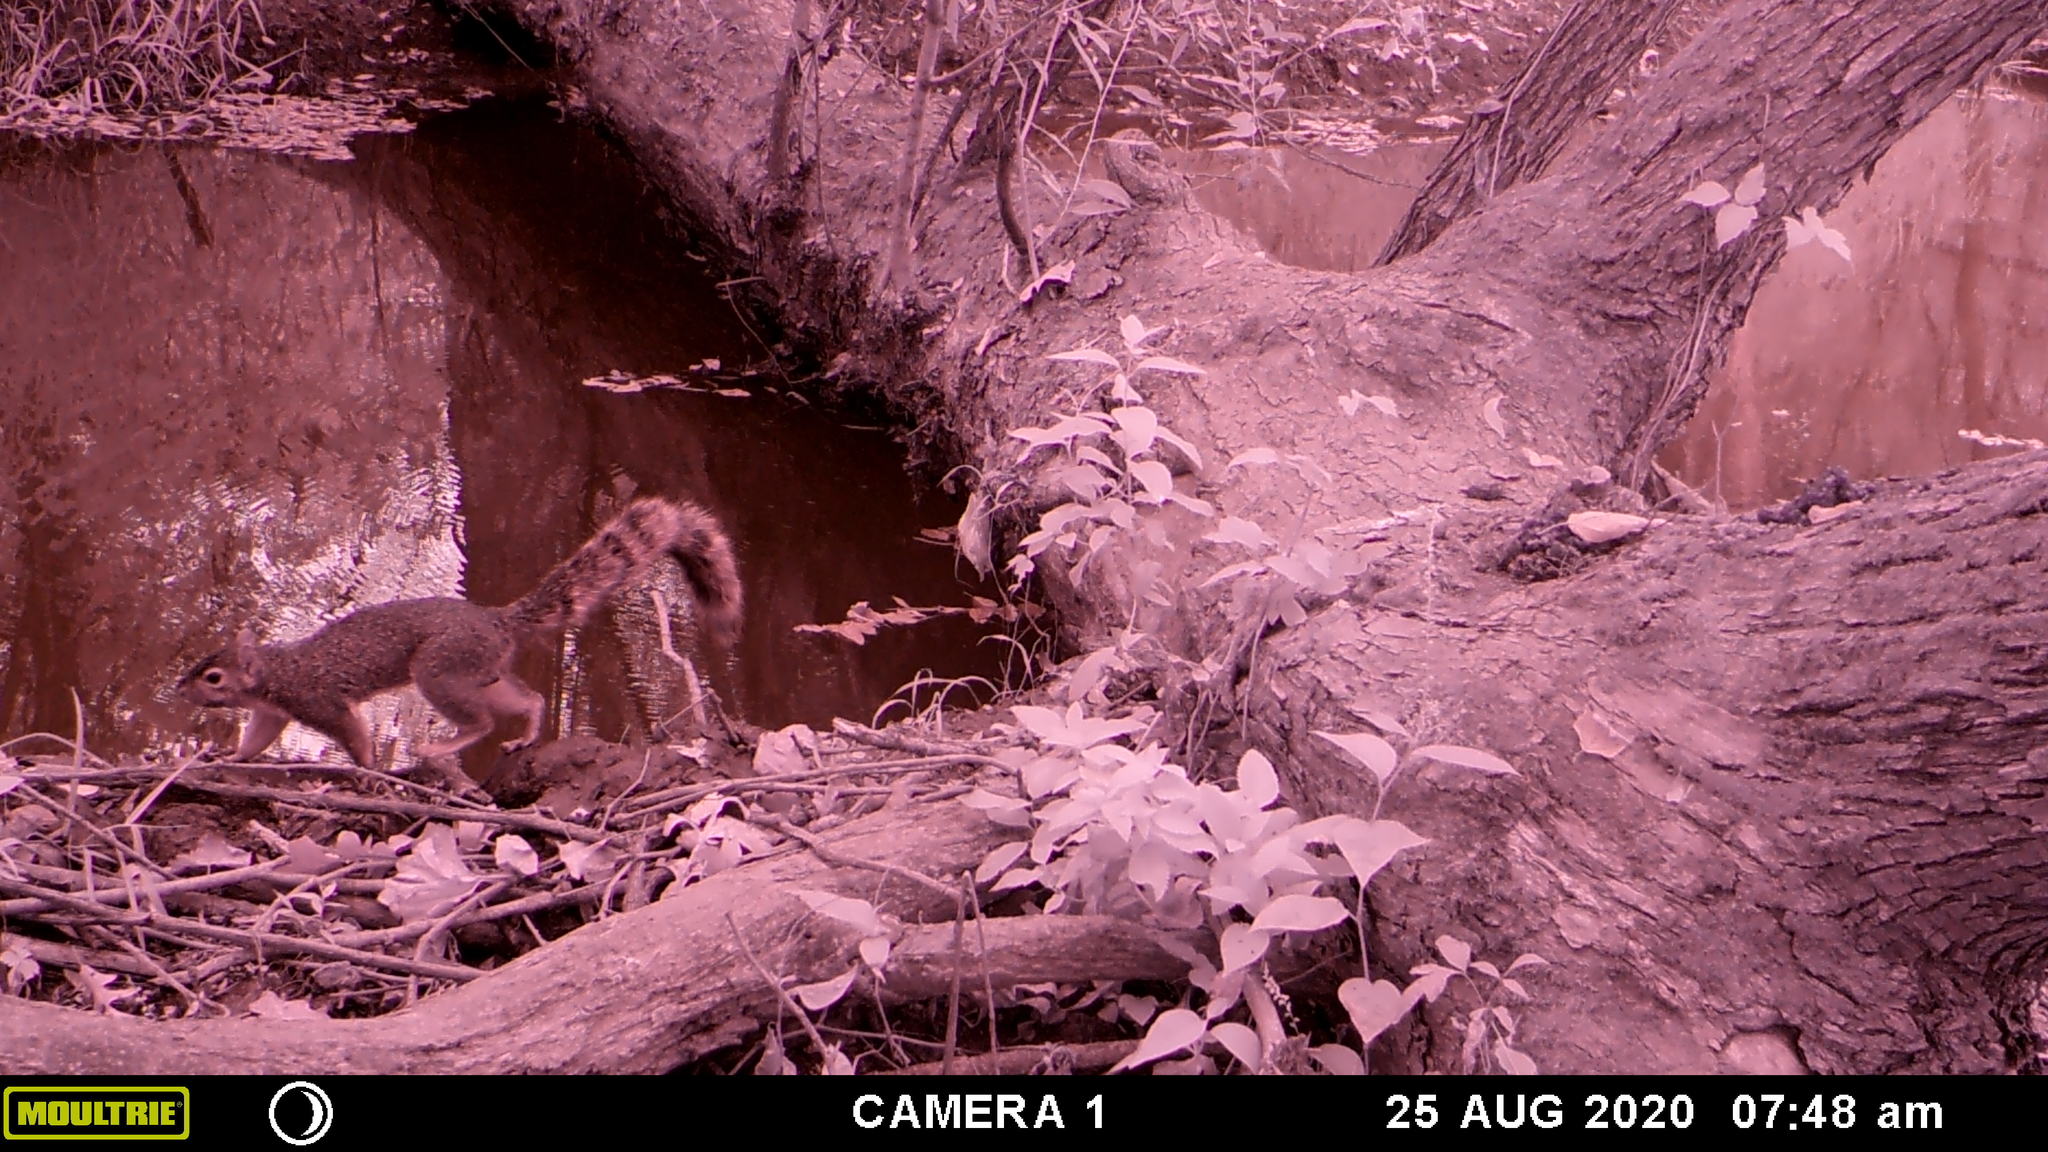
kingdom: Animalia
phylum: Chordata
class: Mammalia
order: Rodentia
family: Sciuridae
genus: Sciurus
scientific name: Sciurus niger
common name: Fox squirrel
